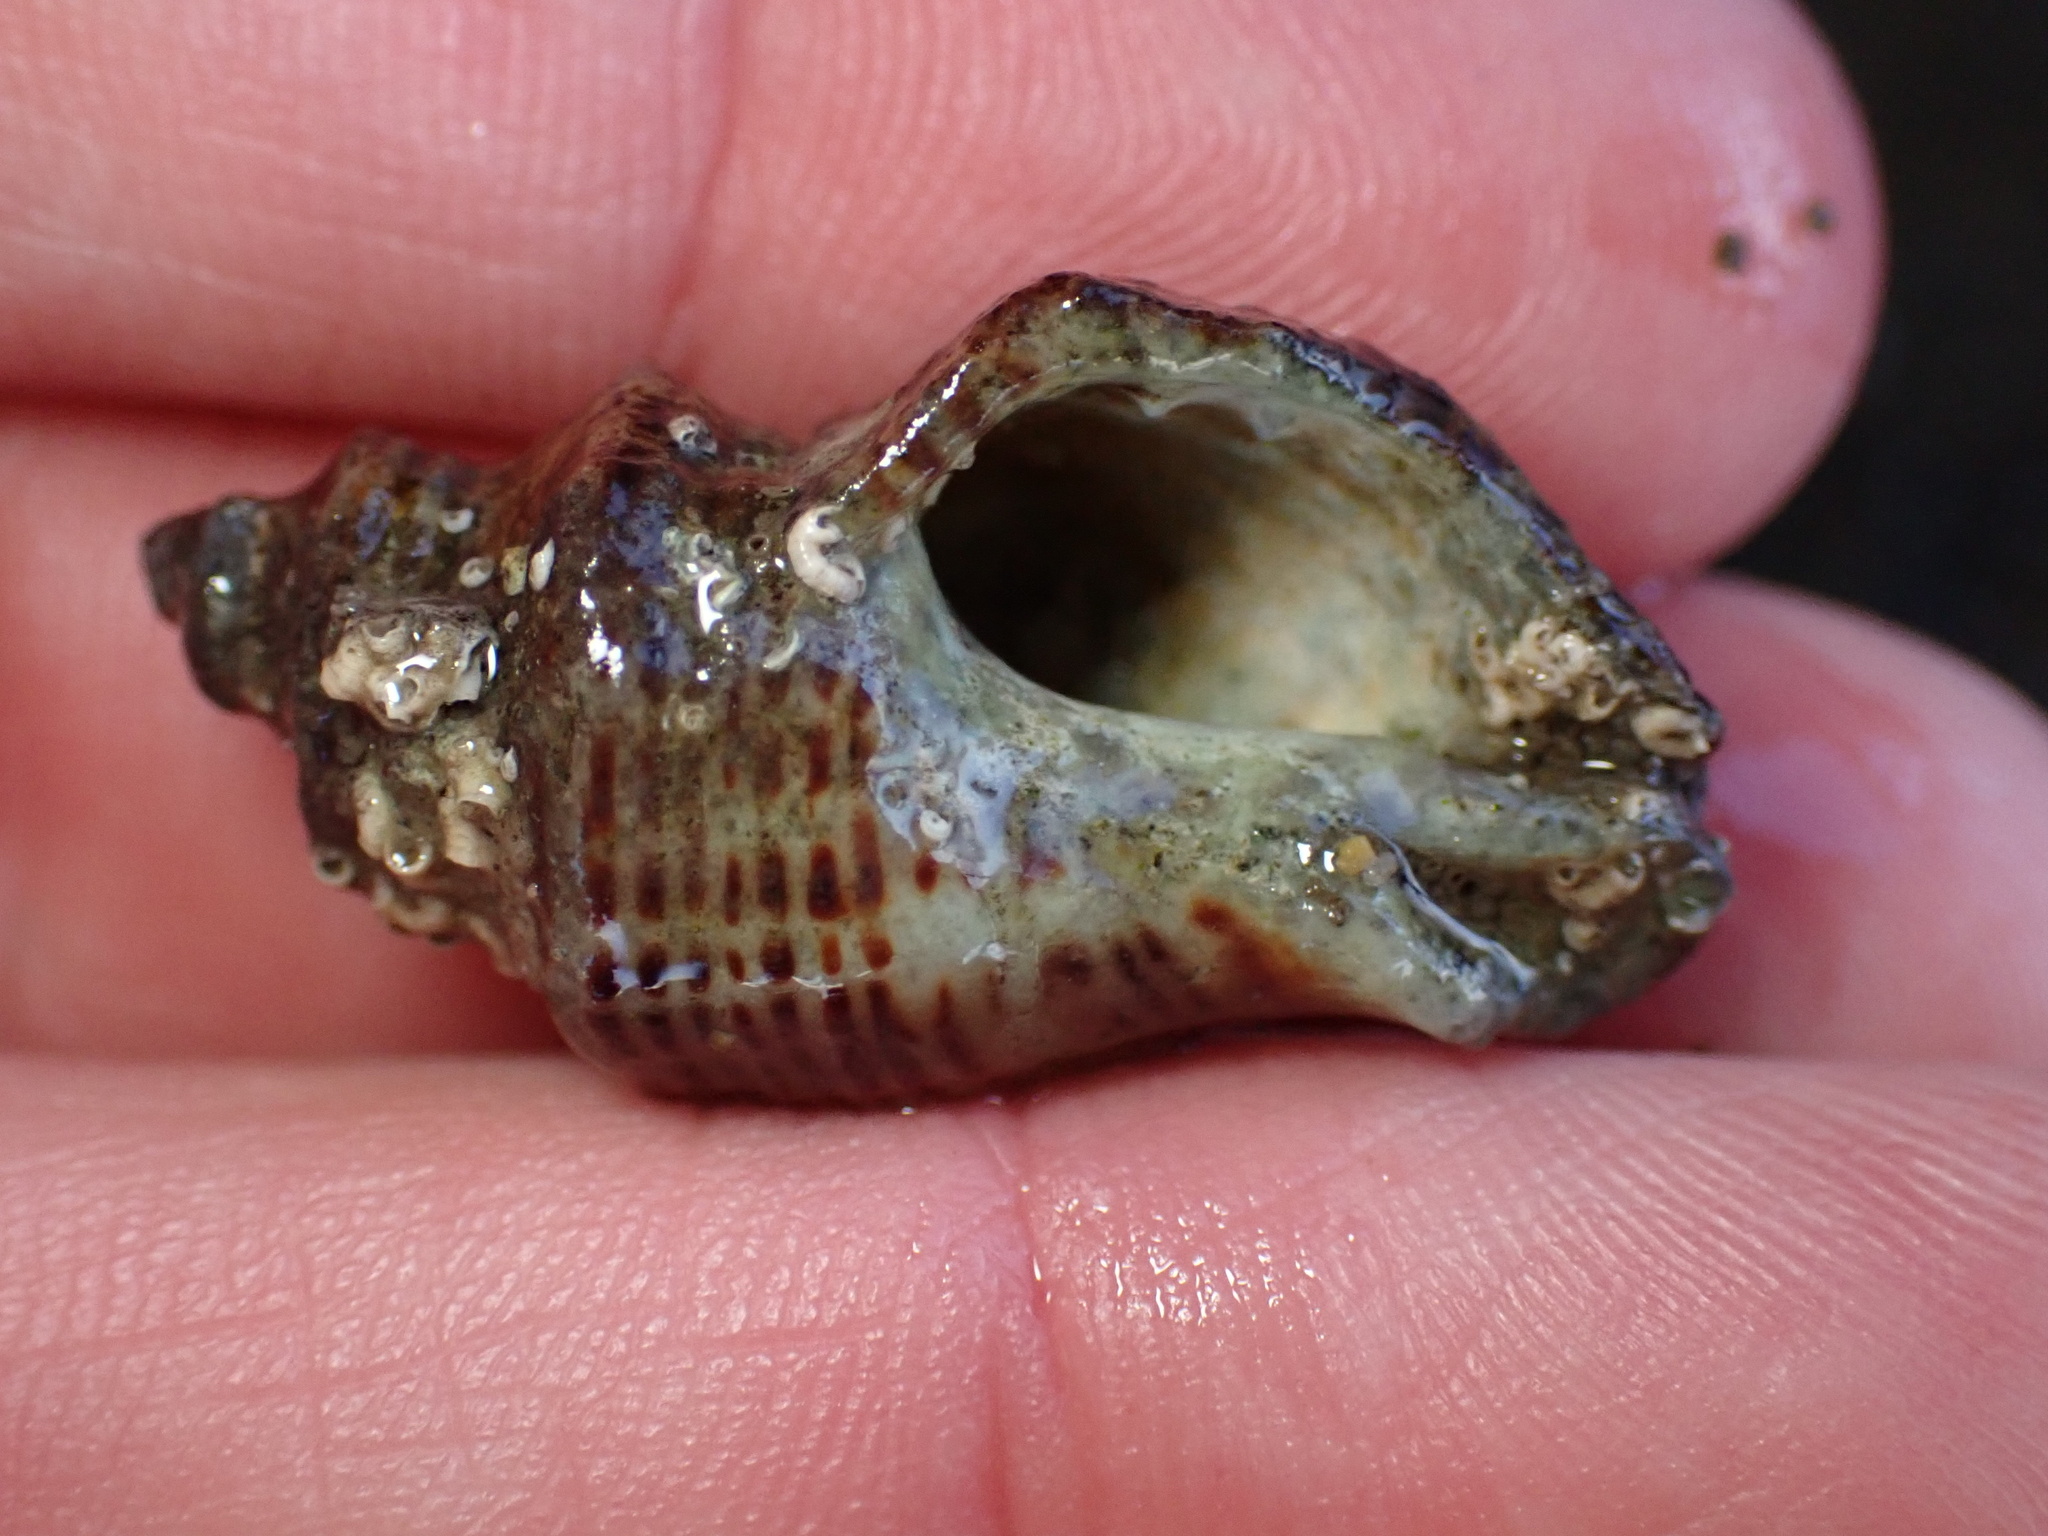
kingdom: Animalia
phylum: Mollusca
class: Gastropoda
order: Neogastropoda
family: Muricidae
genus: Acanthinucella
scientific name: Acanthinucella spirata
